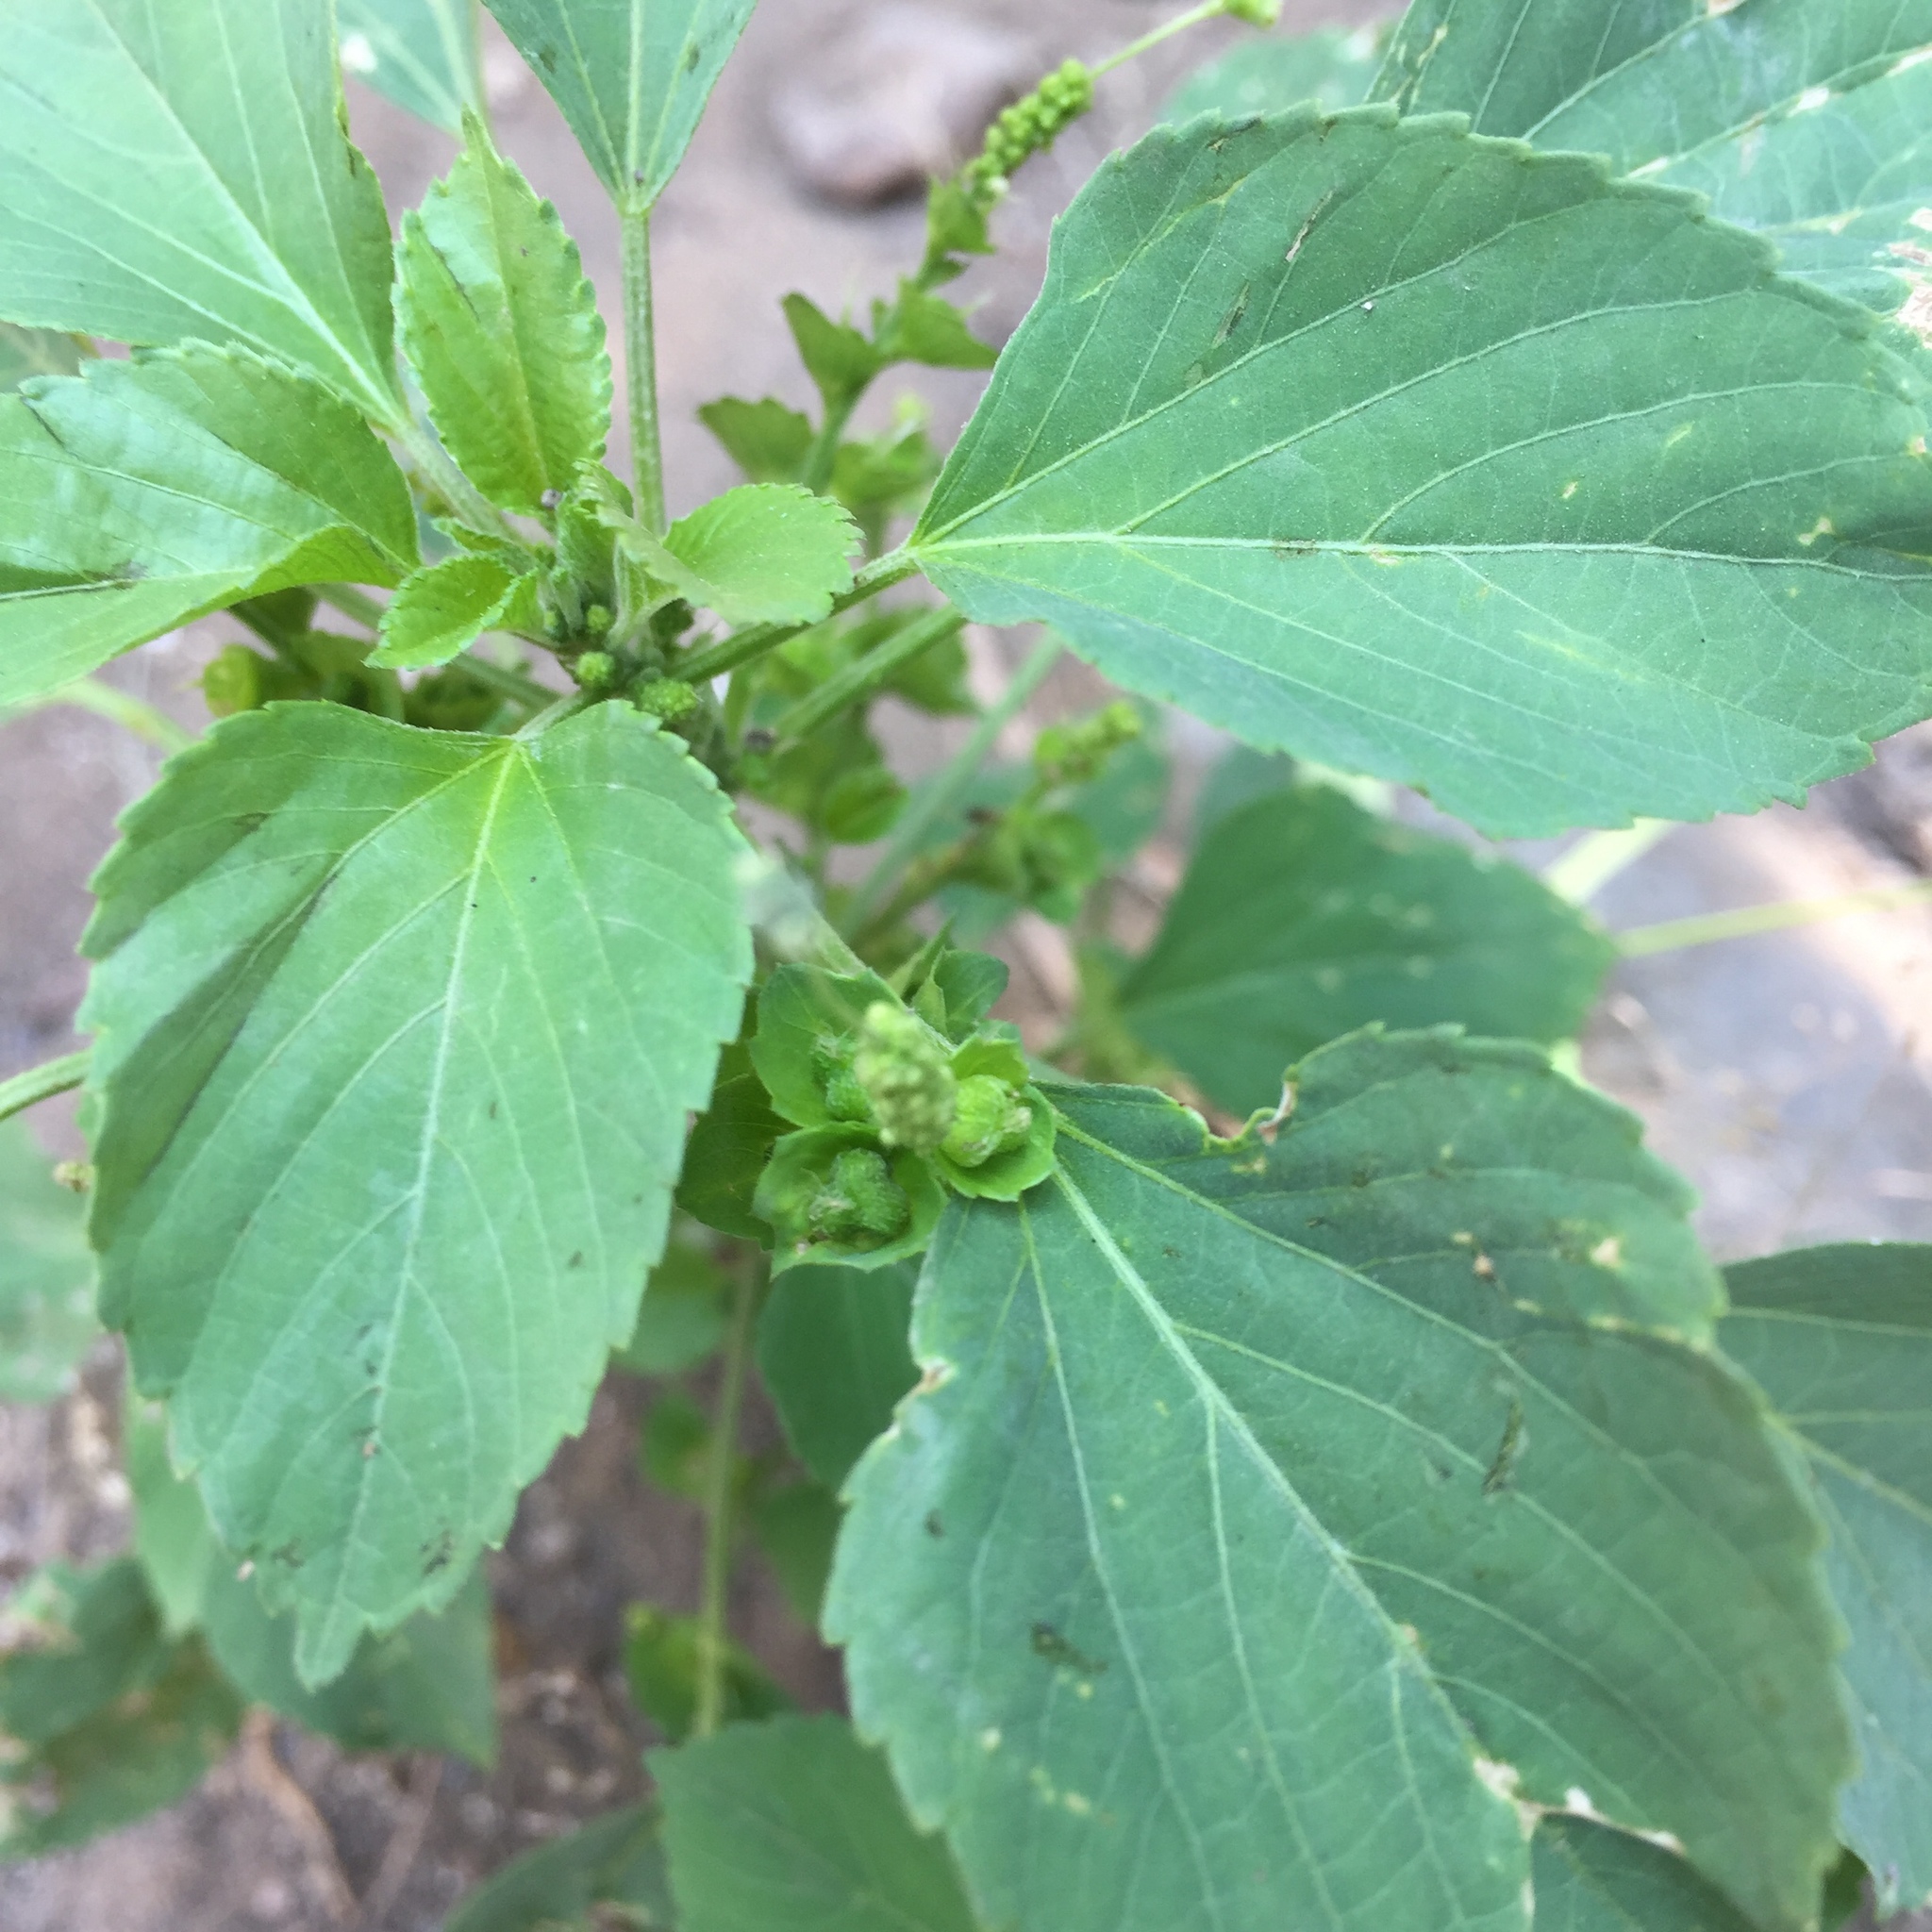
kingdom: Plantae
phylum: Tracheophyta
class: Magnoliopsida
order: Malpighiales
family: Euphorbiaceae
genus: Acalypha
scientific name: Acalypha indica
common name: Indian acalypha
